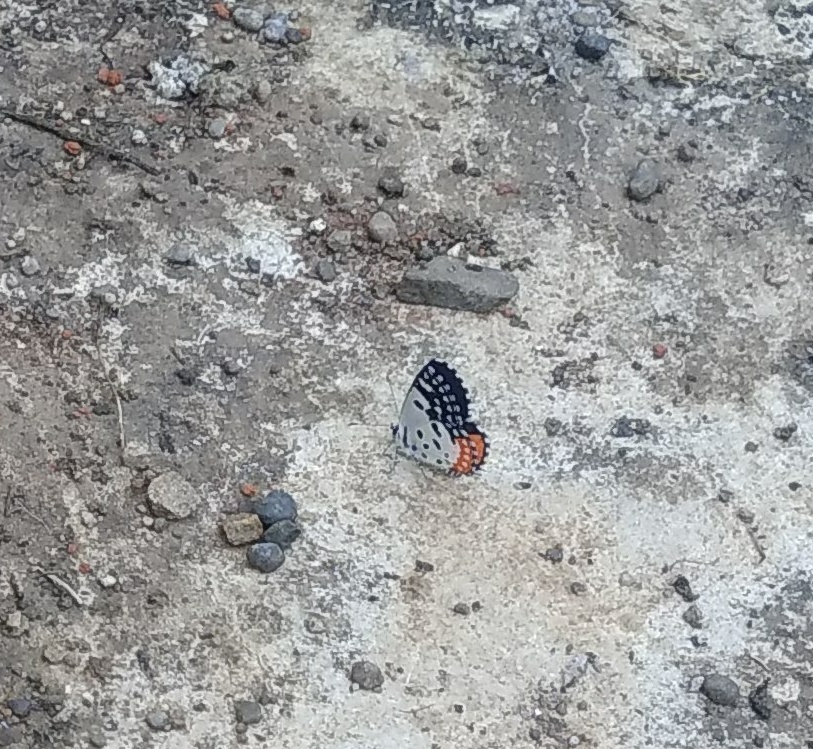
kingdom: Animalia
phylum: Arthropoda
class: Insecta
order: Lepidoptera
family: Lycaenidae
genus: Talicada
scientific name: Talicada nyseus
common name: Red pierrot
